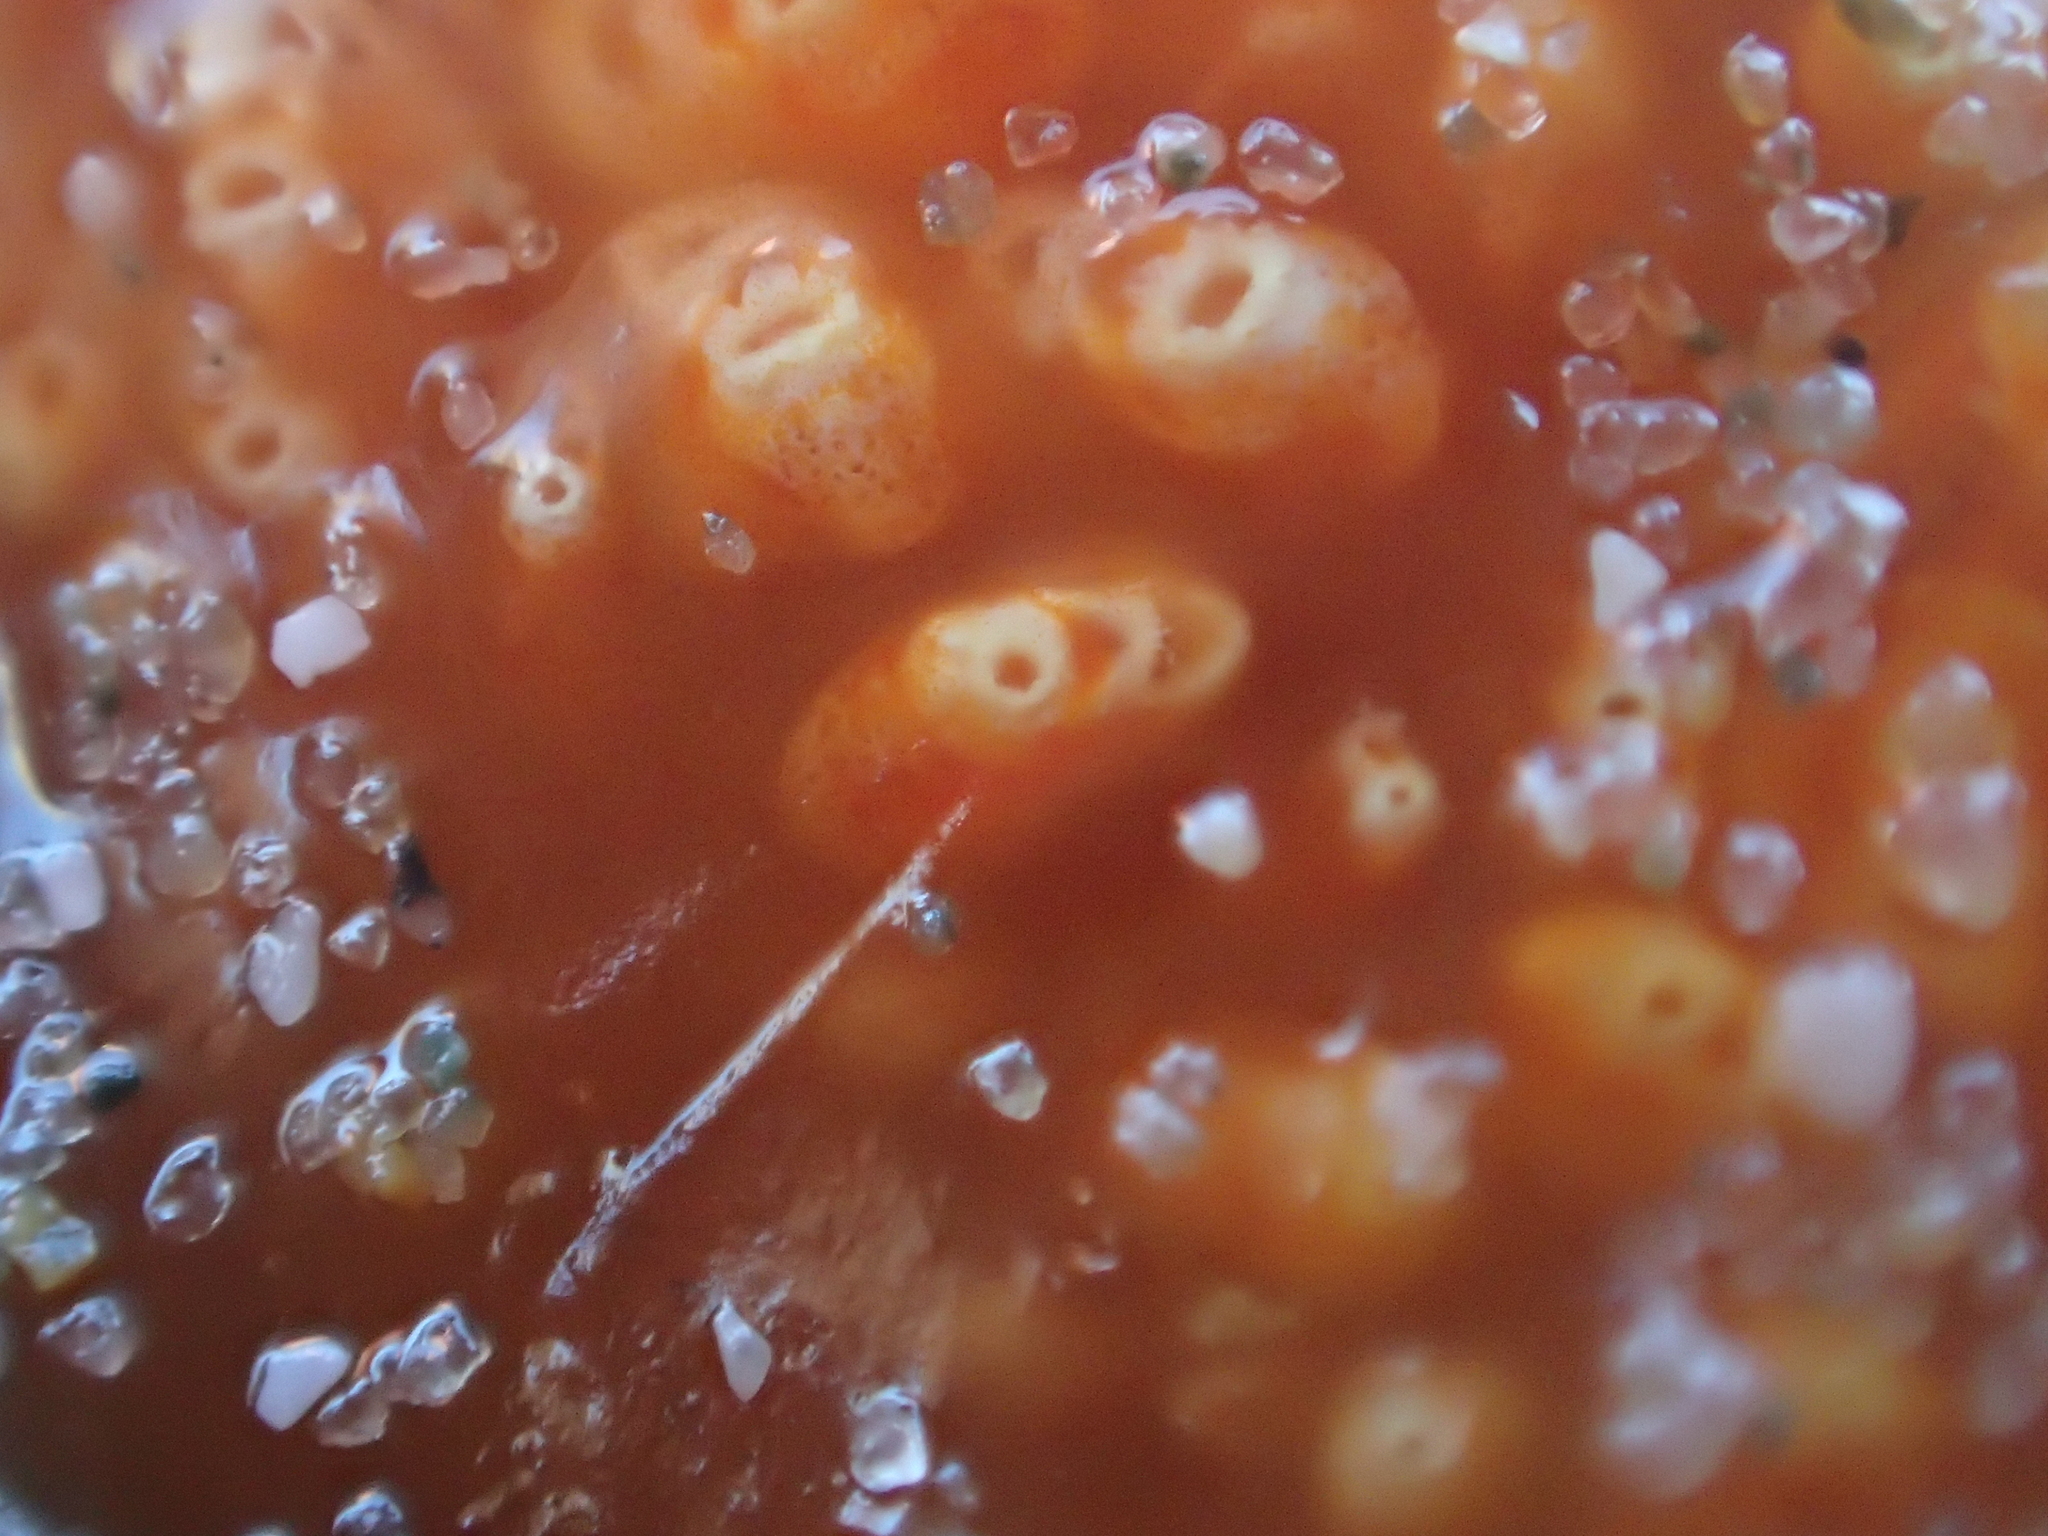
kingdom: Animalia
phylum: Chordata
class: Ascidiacea
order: Aplousobranchia
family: Polyclinidae
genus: Aplidium
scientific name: Aplidium benhami
